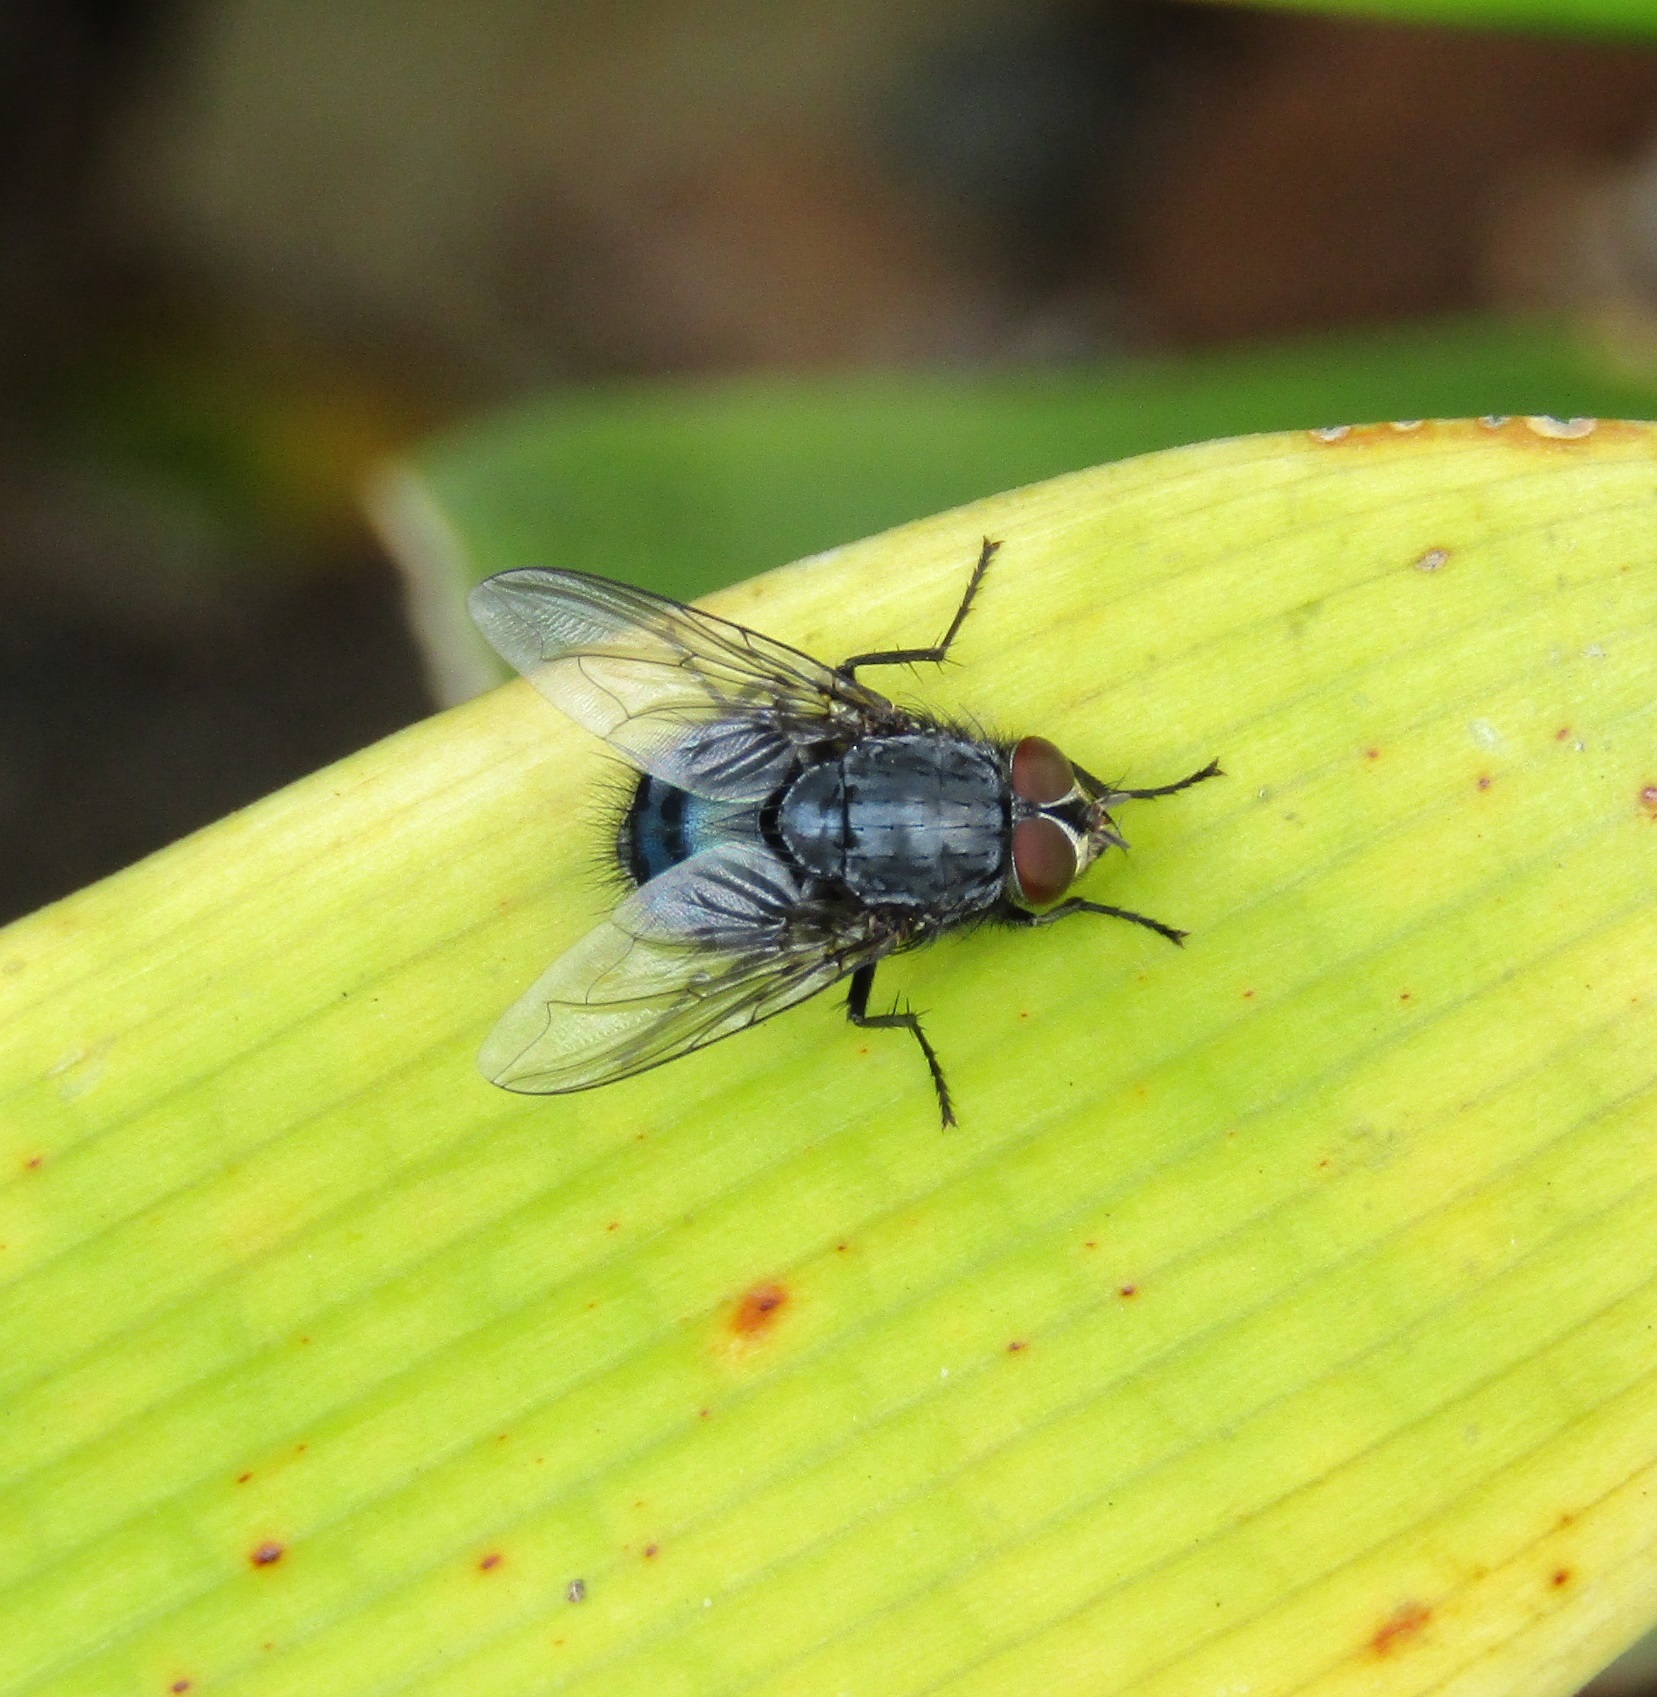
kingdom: Animalia
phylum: Arthropoda
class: Insecta
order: Diptera
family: Calliphoridae
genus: Calliphora
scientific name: Calliphora vicina
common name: Common blow flie
